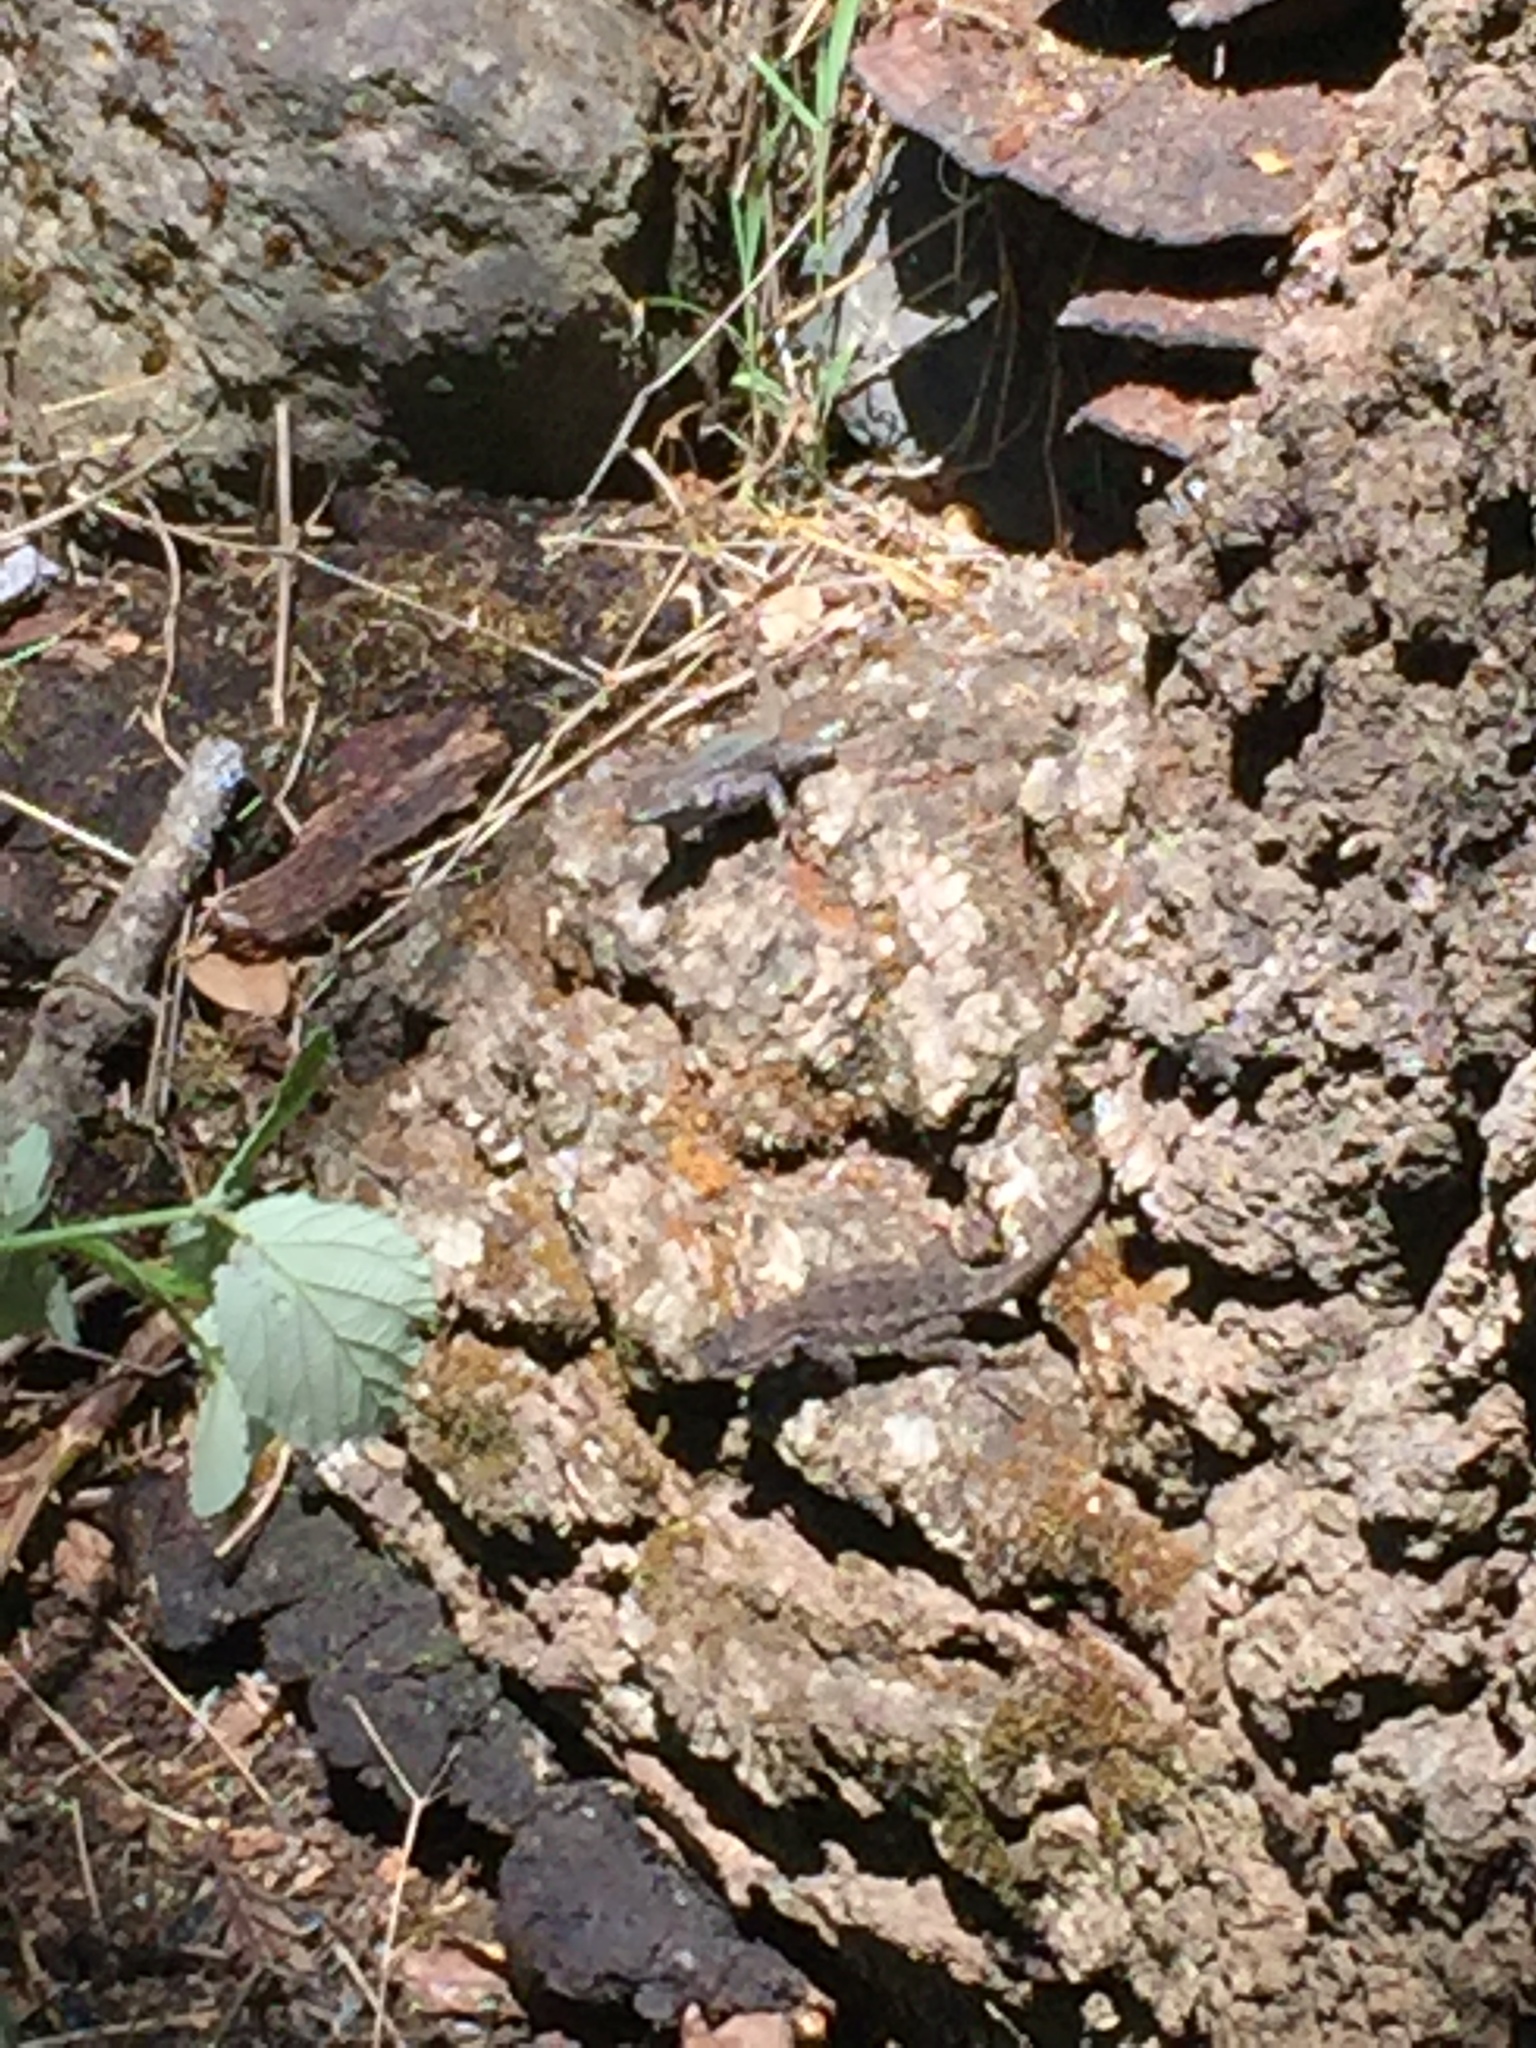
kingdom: Animalia
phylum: Chordata
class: Squamata
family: Phrynosomatidae
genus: Sceloporus
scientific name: Sceloporus occidentalis
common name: Western fence lizard
